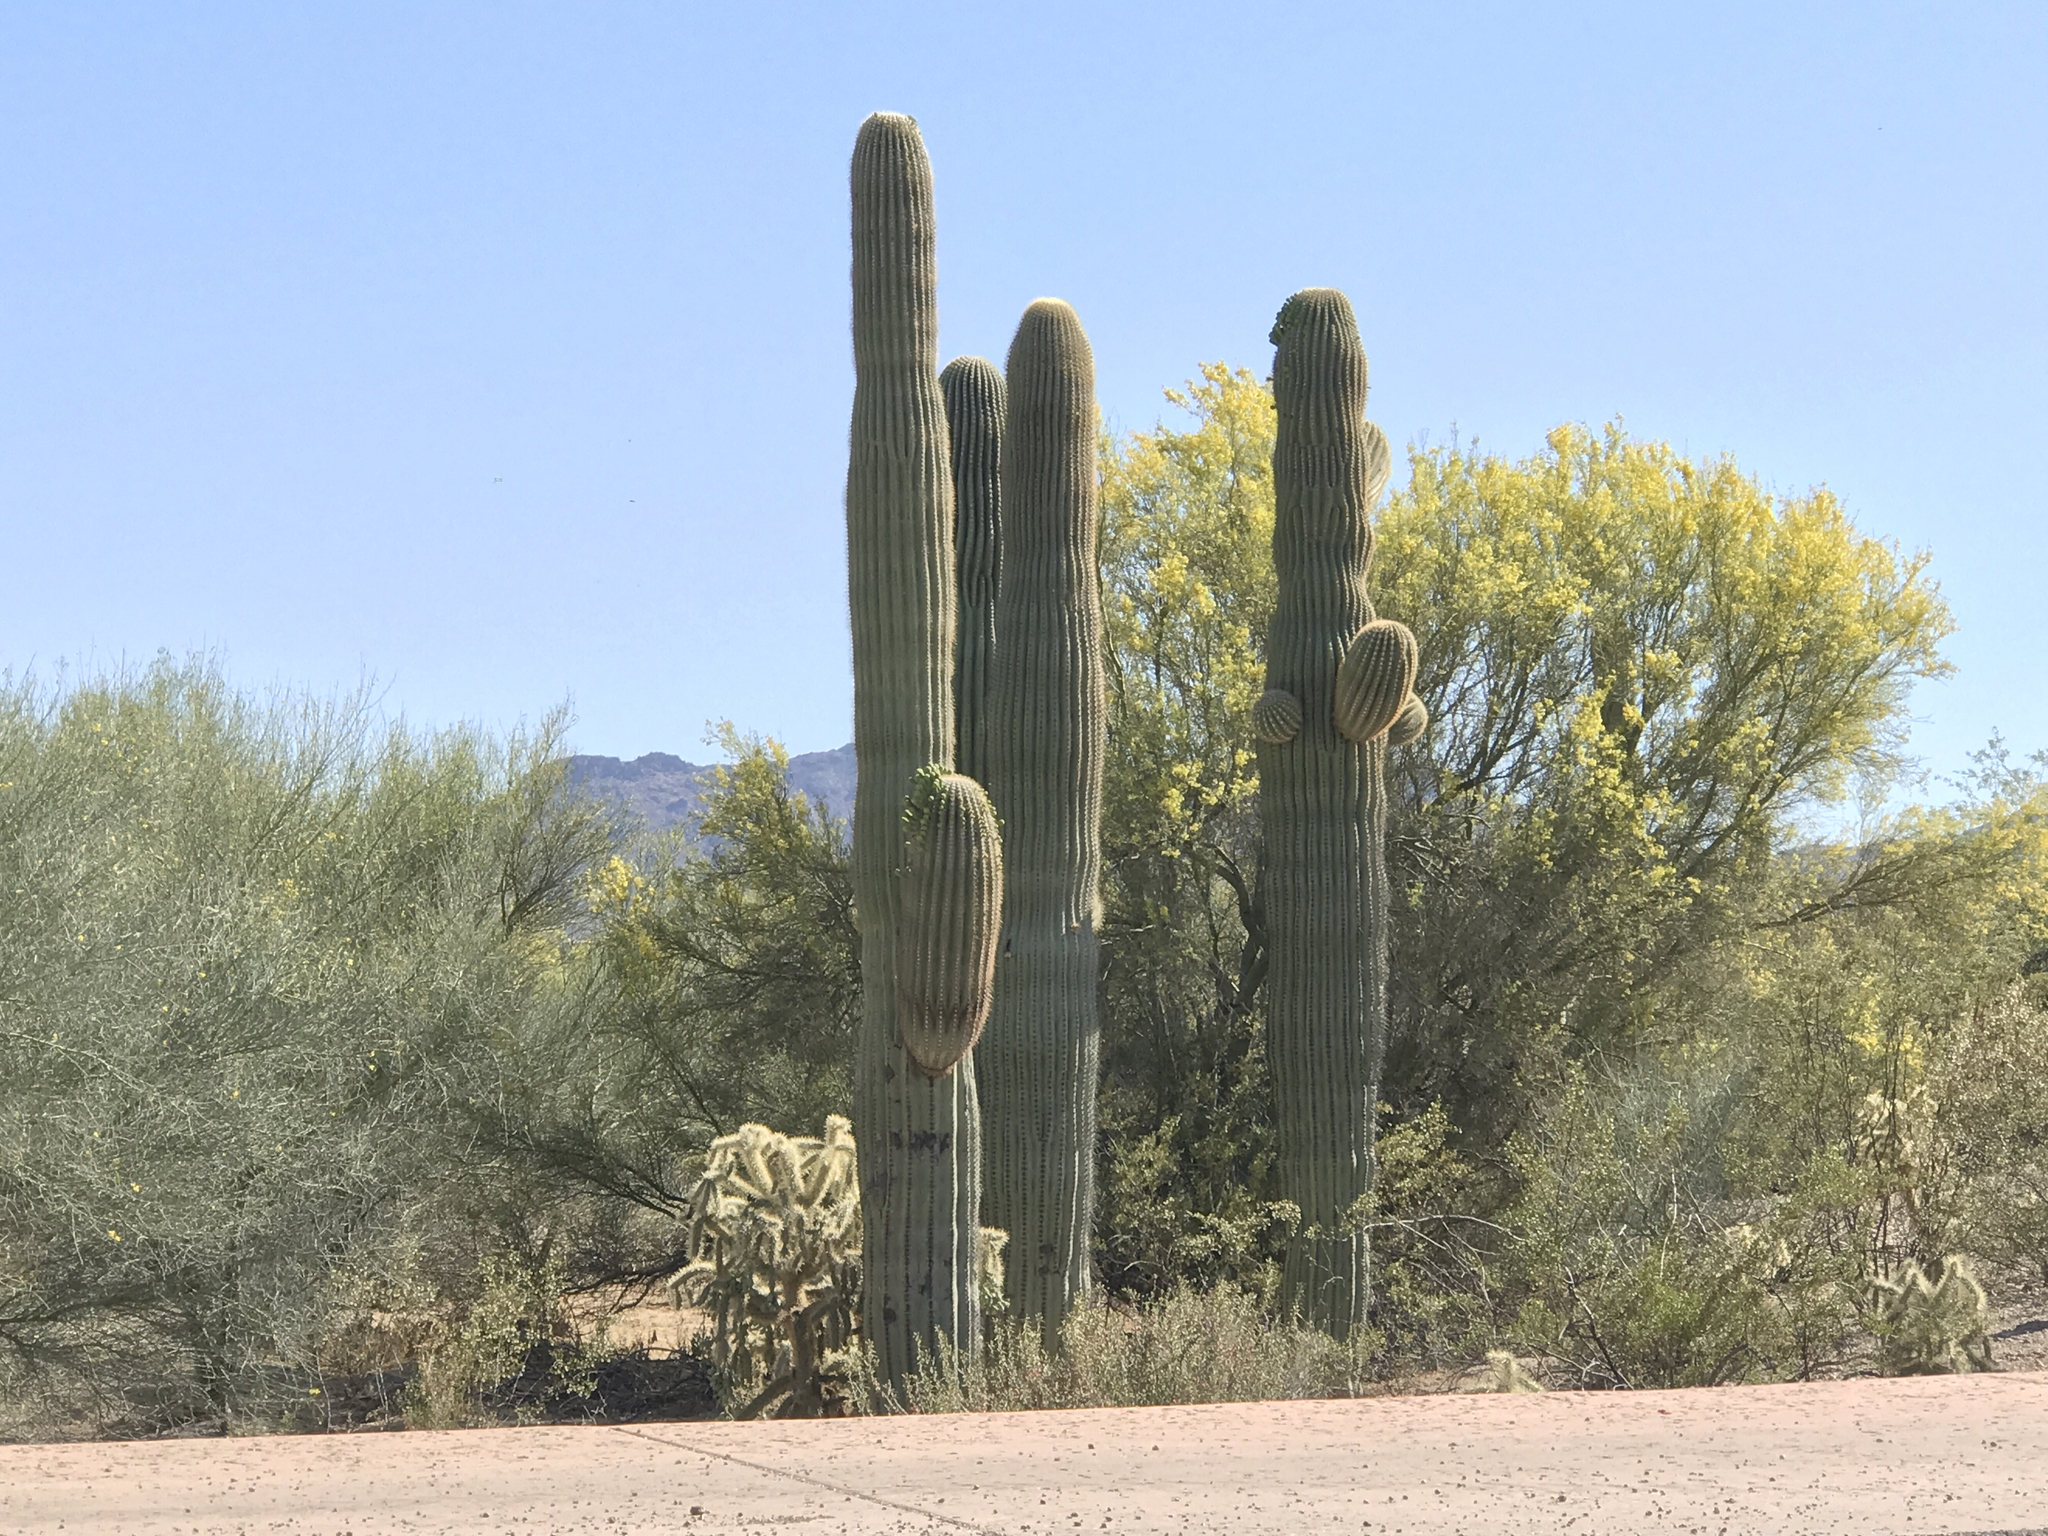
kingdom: Plantae
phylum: Tracheophyta
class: Magnoliopsida
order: Caryophyllales
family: Cactaceae
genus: Carnegiea
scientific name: Carnegiea gigantea
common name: Saguaro
